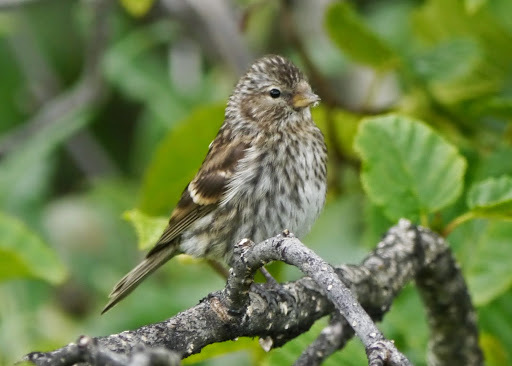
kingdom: Animalia
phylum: Chordata
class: Aves
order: Passeriformes
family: Fringillidae
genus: Spinus
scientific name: Spinus pinus
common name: Pine siskin
